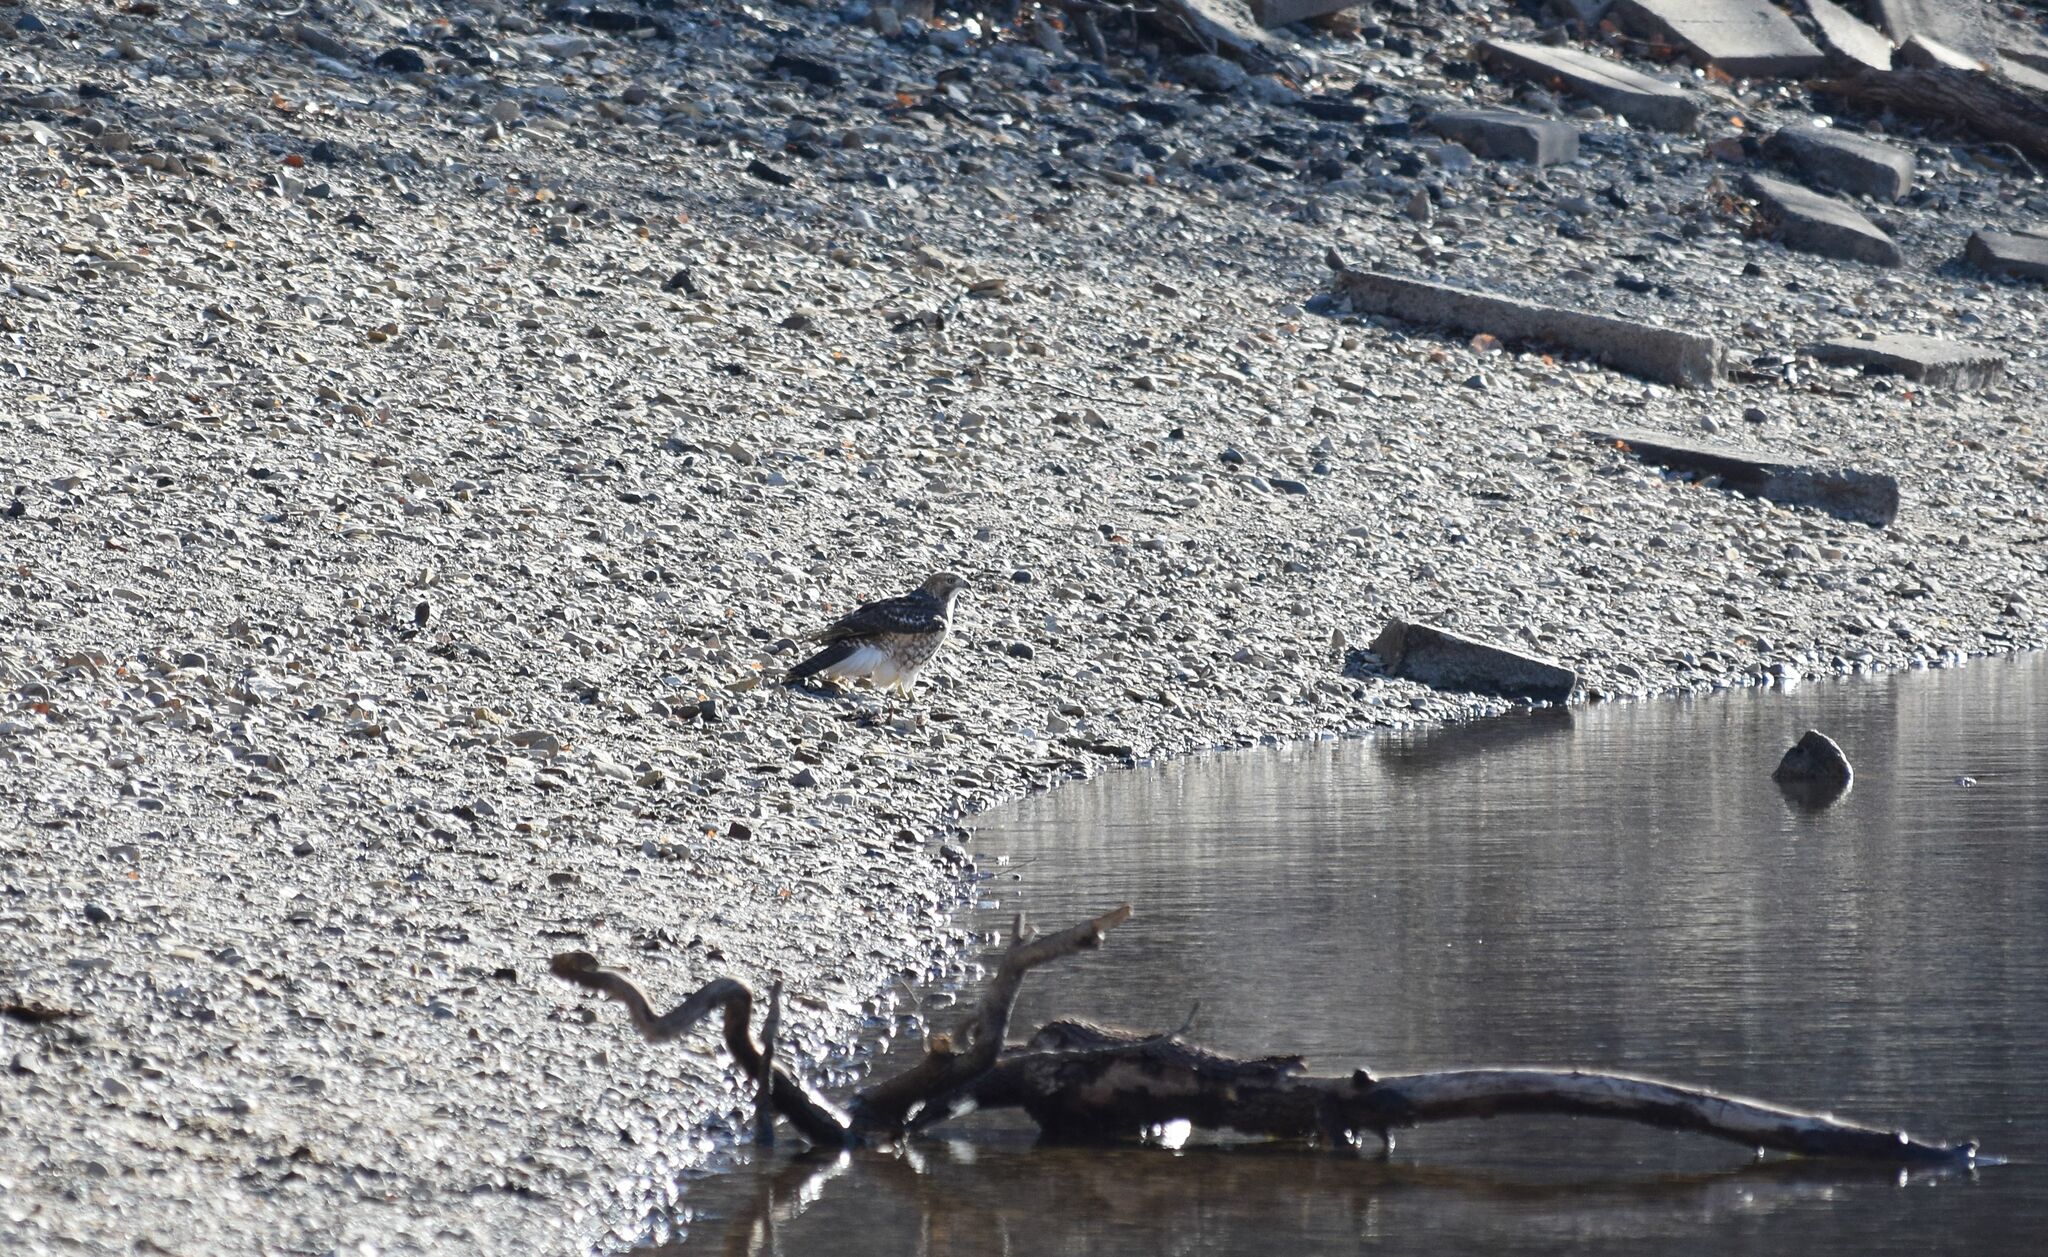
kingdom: Animalia
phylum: Chordata
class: Aves
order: Accipitriformes
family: Accipitridae
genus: Buteo
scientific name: Buteo jamaicensis
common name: Red-tailed hawk
